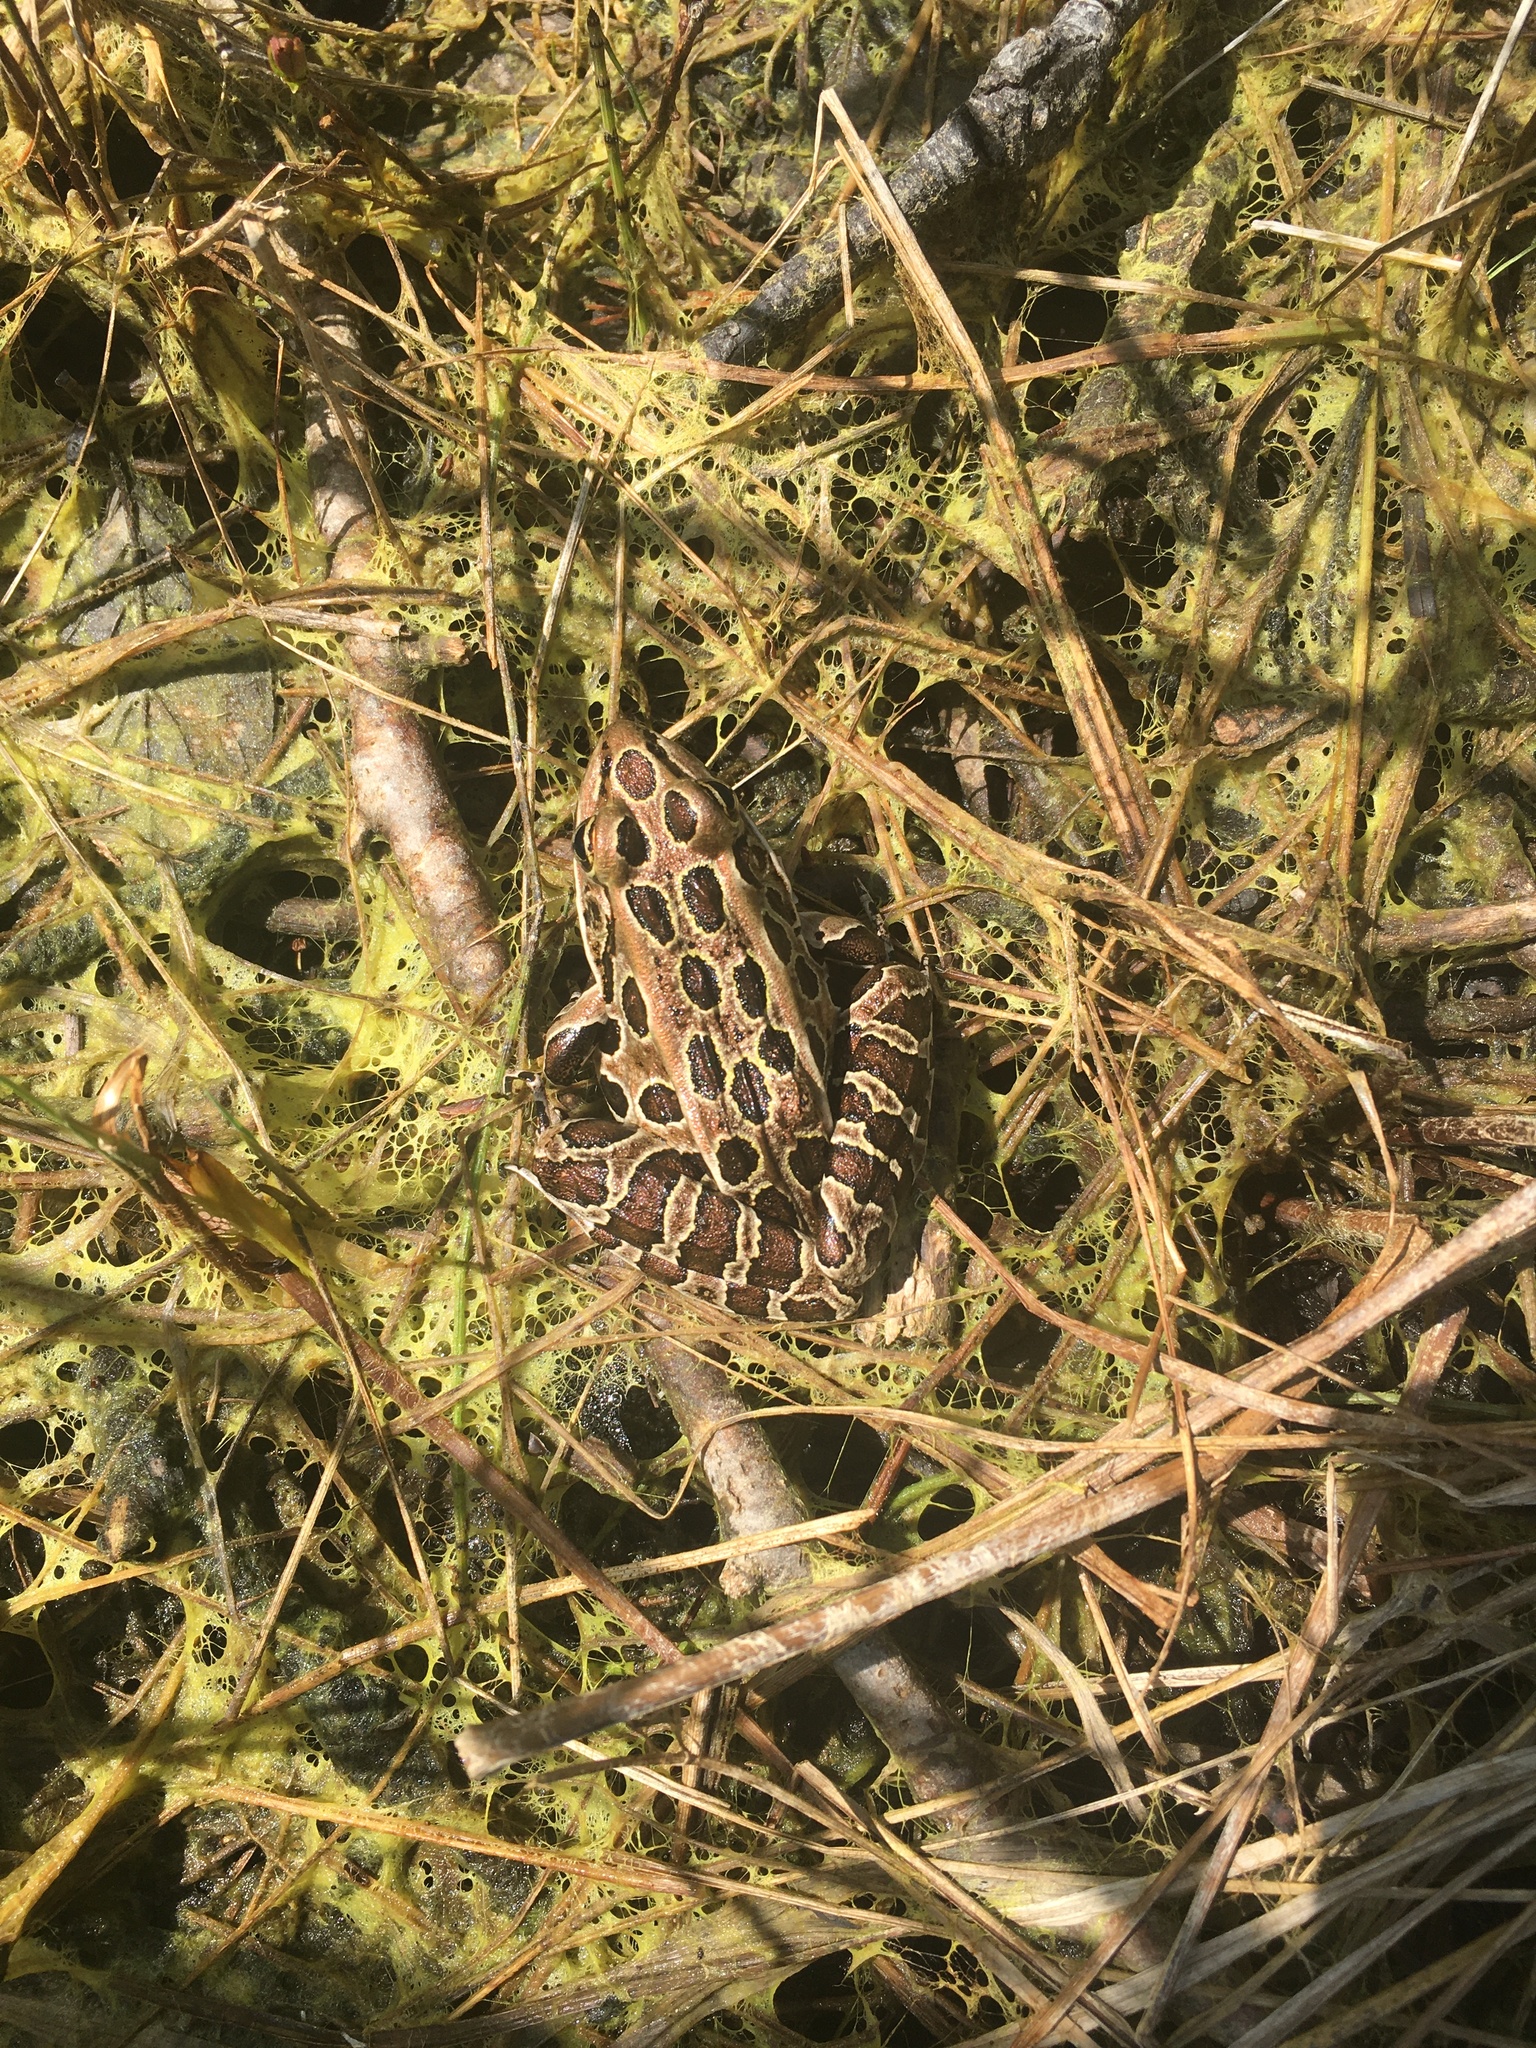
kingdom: Animalia
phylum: Chordata
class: Amphibia
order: Anura
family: Ranidae
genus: Lithobates
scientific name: Lithobates pipiens
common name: Northern leopard frog
